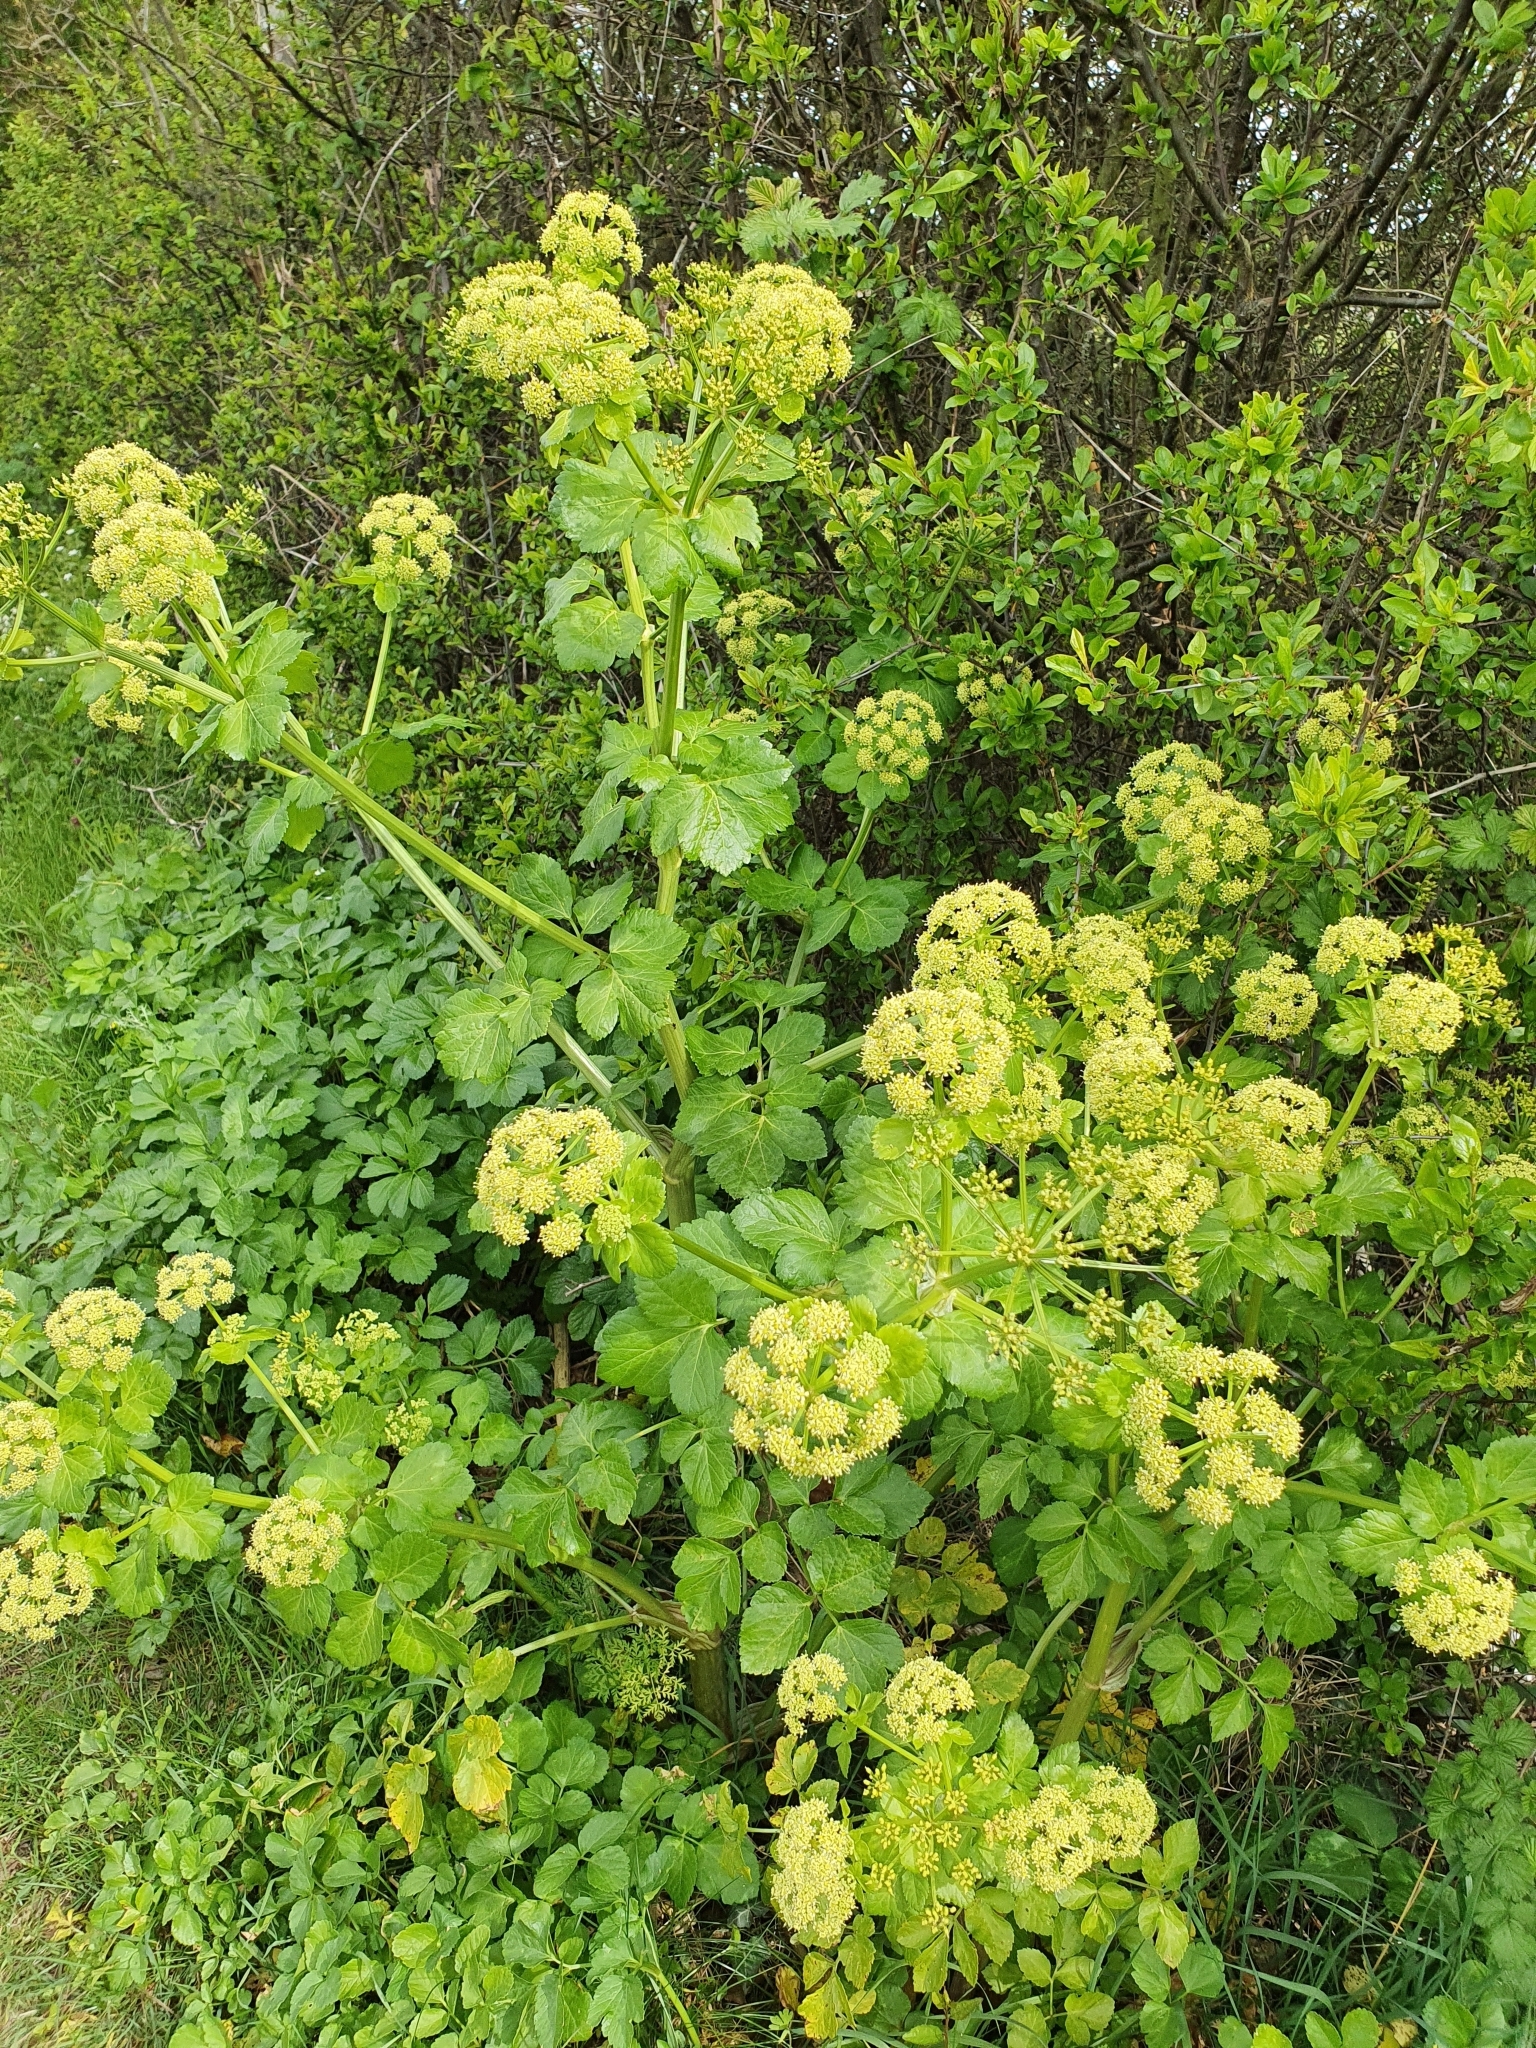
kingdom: Plantae
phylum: Tracheophyta
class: Magnoliopsida
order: Apiales
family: Apiaceae
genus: Smyrnium
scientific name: Smyrnium olusatrum
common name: Alexanders
